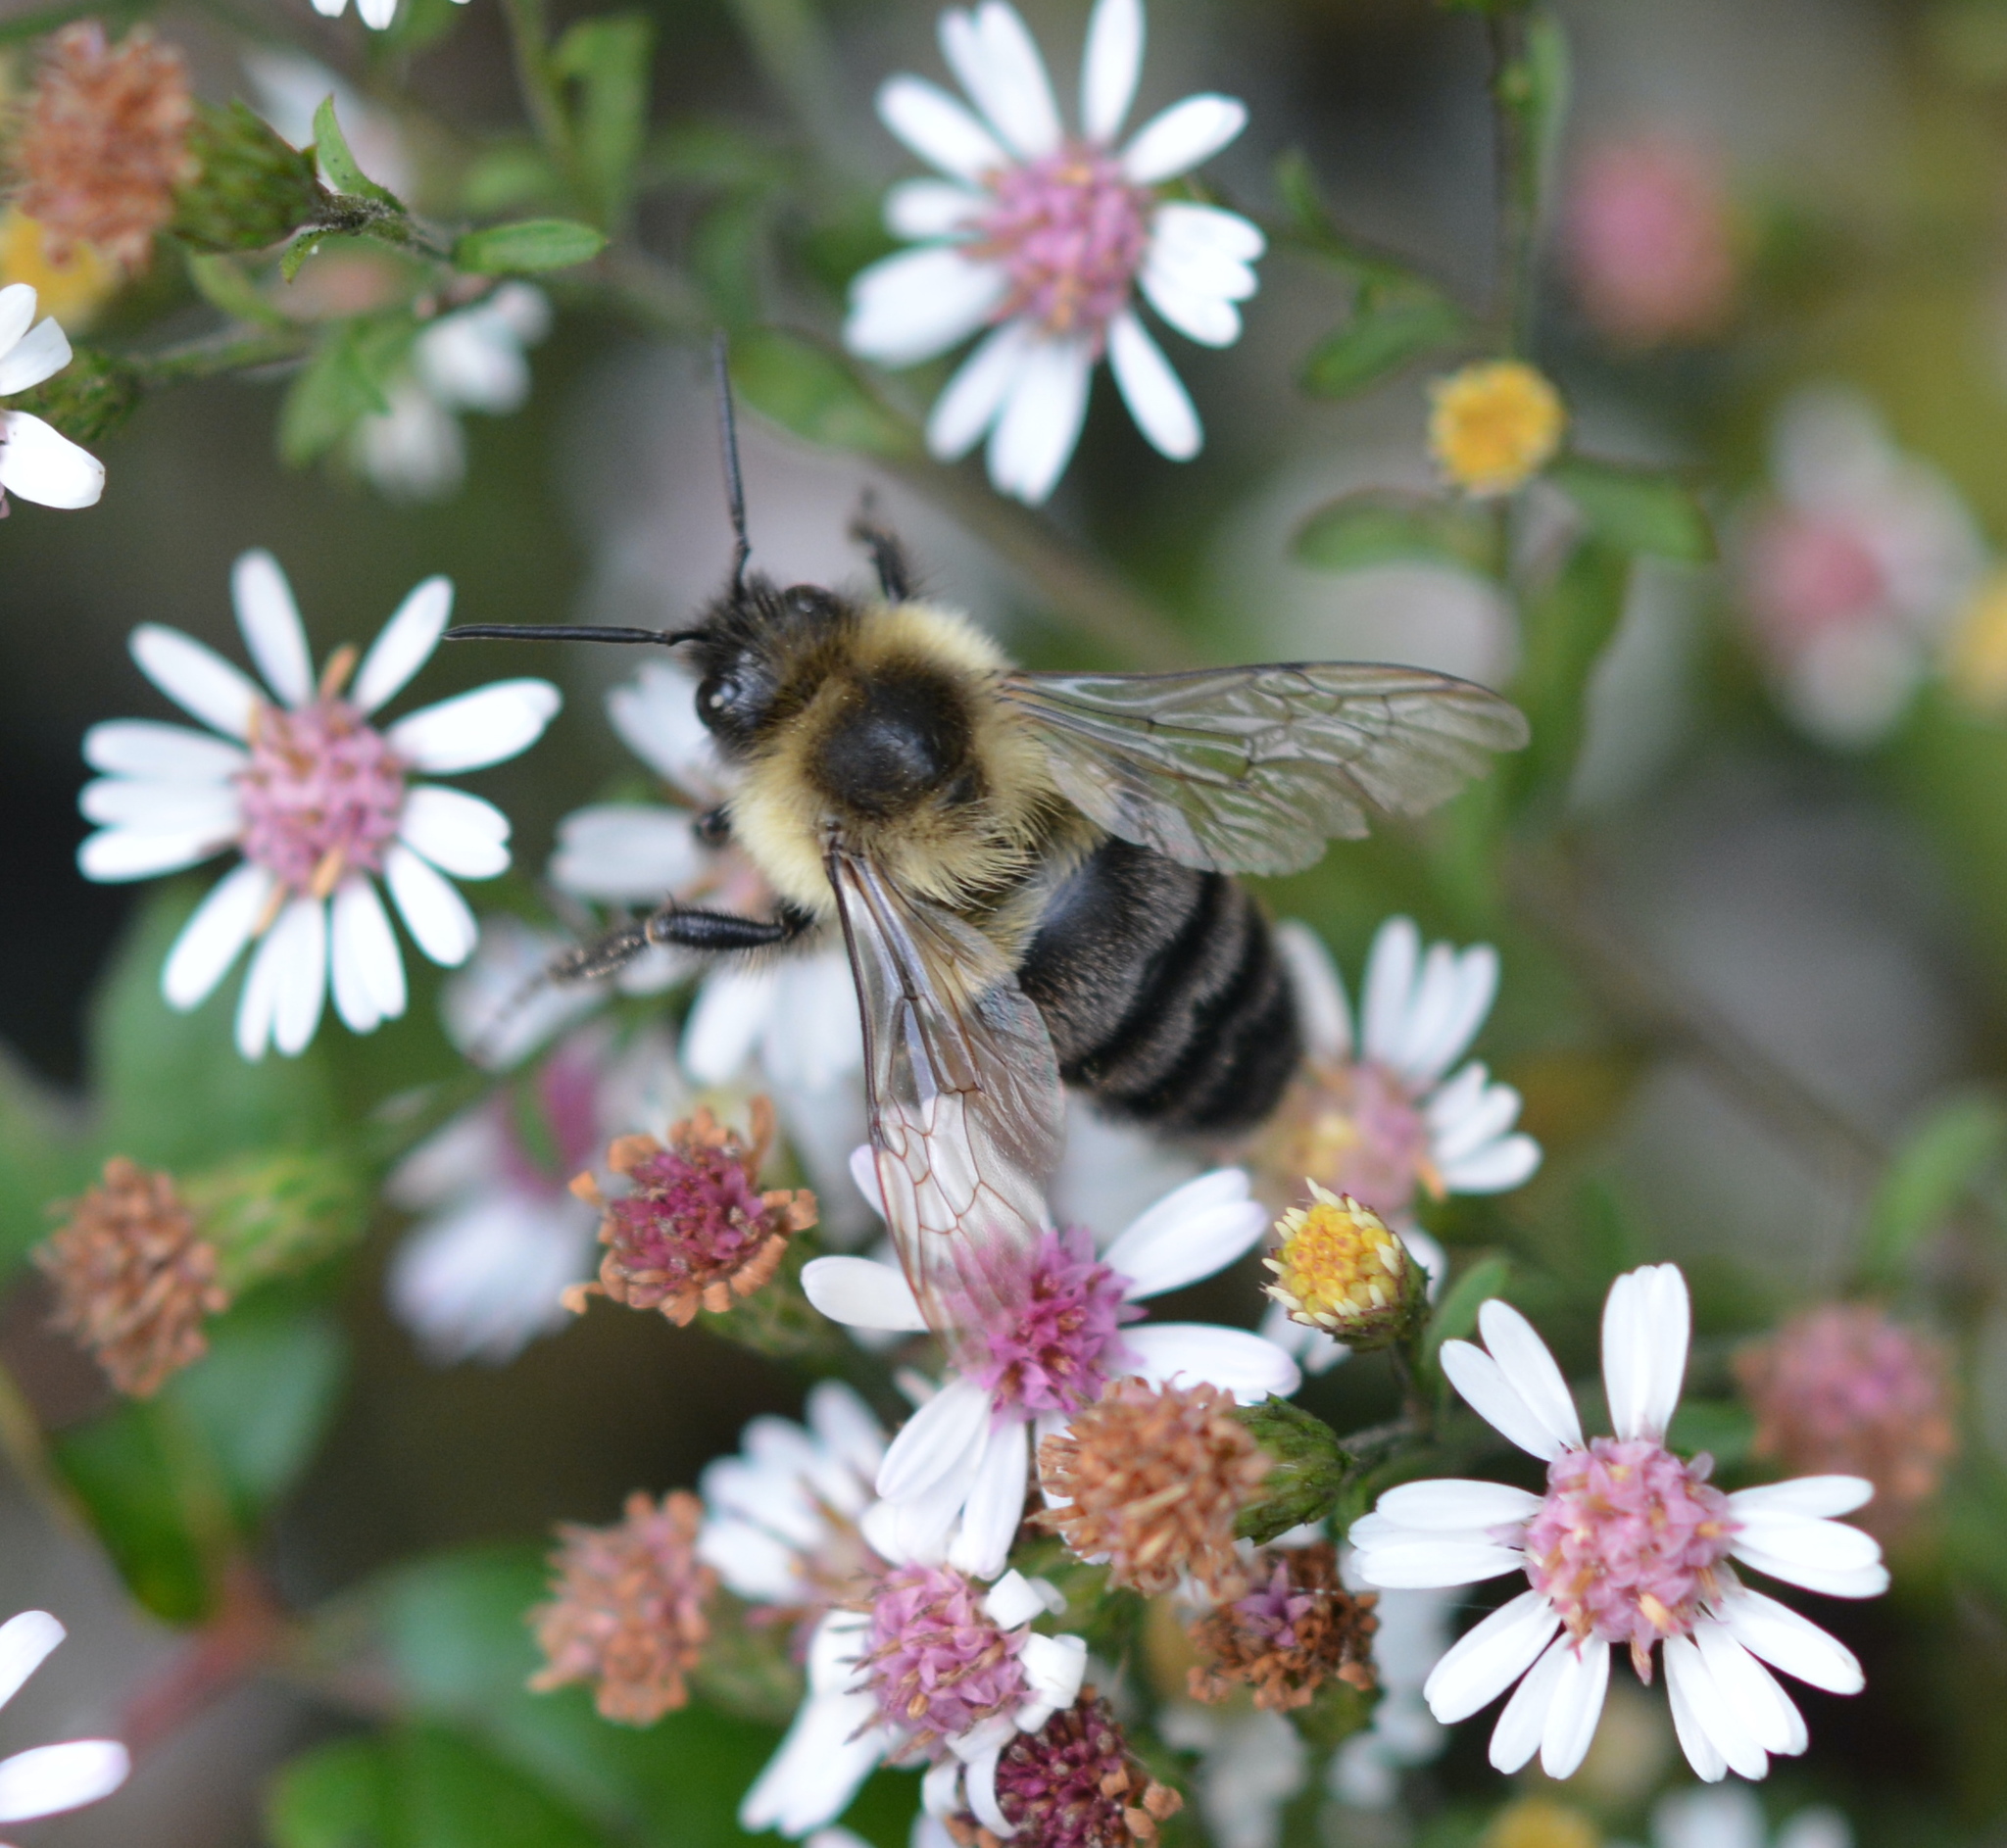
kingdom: Animalia
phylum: Arthropoda
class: Insecta
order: Hymenoptera
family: Apidae
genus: Bombus
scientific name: Bombus impatiens
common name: Common eastern bumble bee
